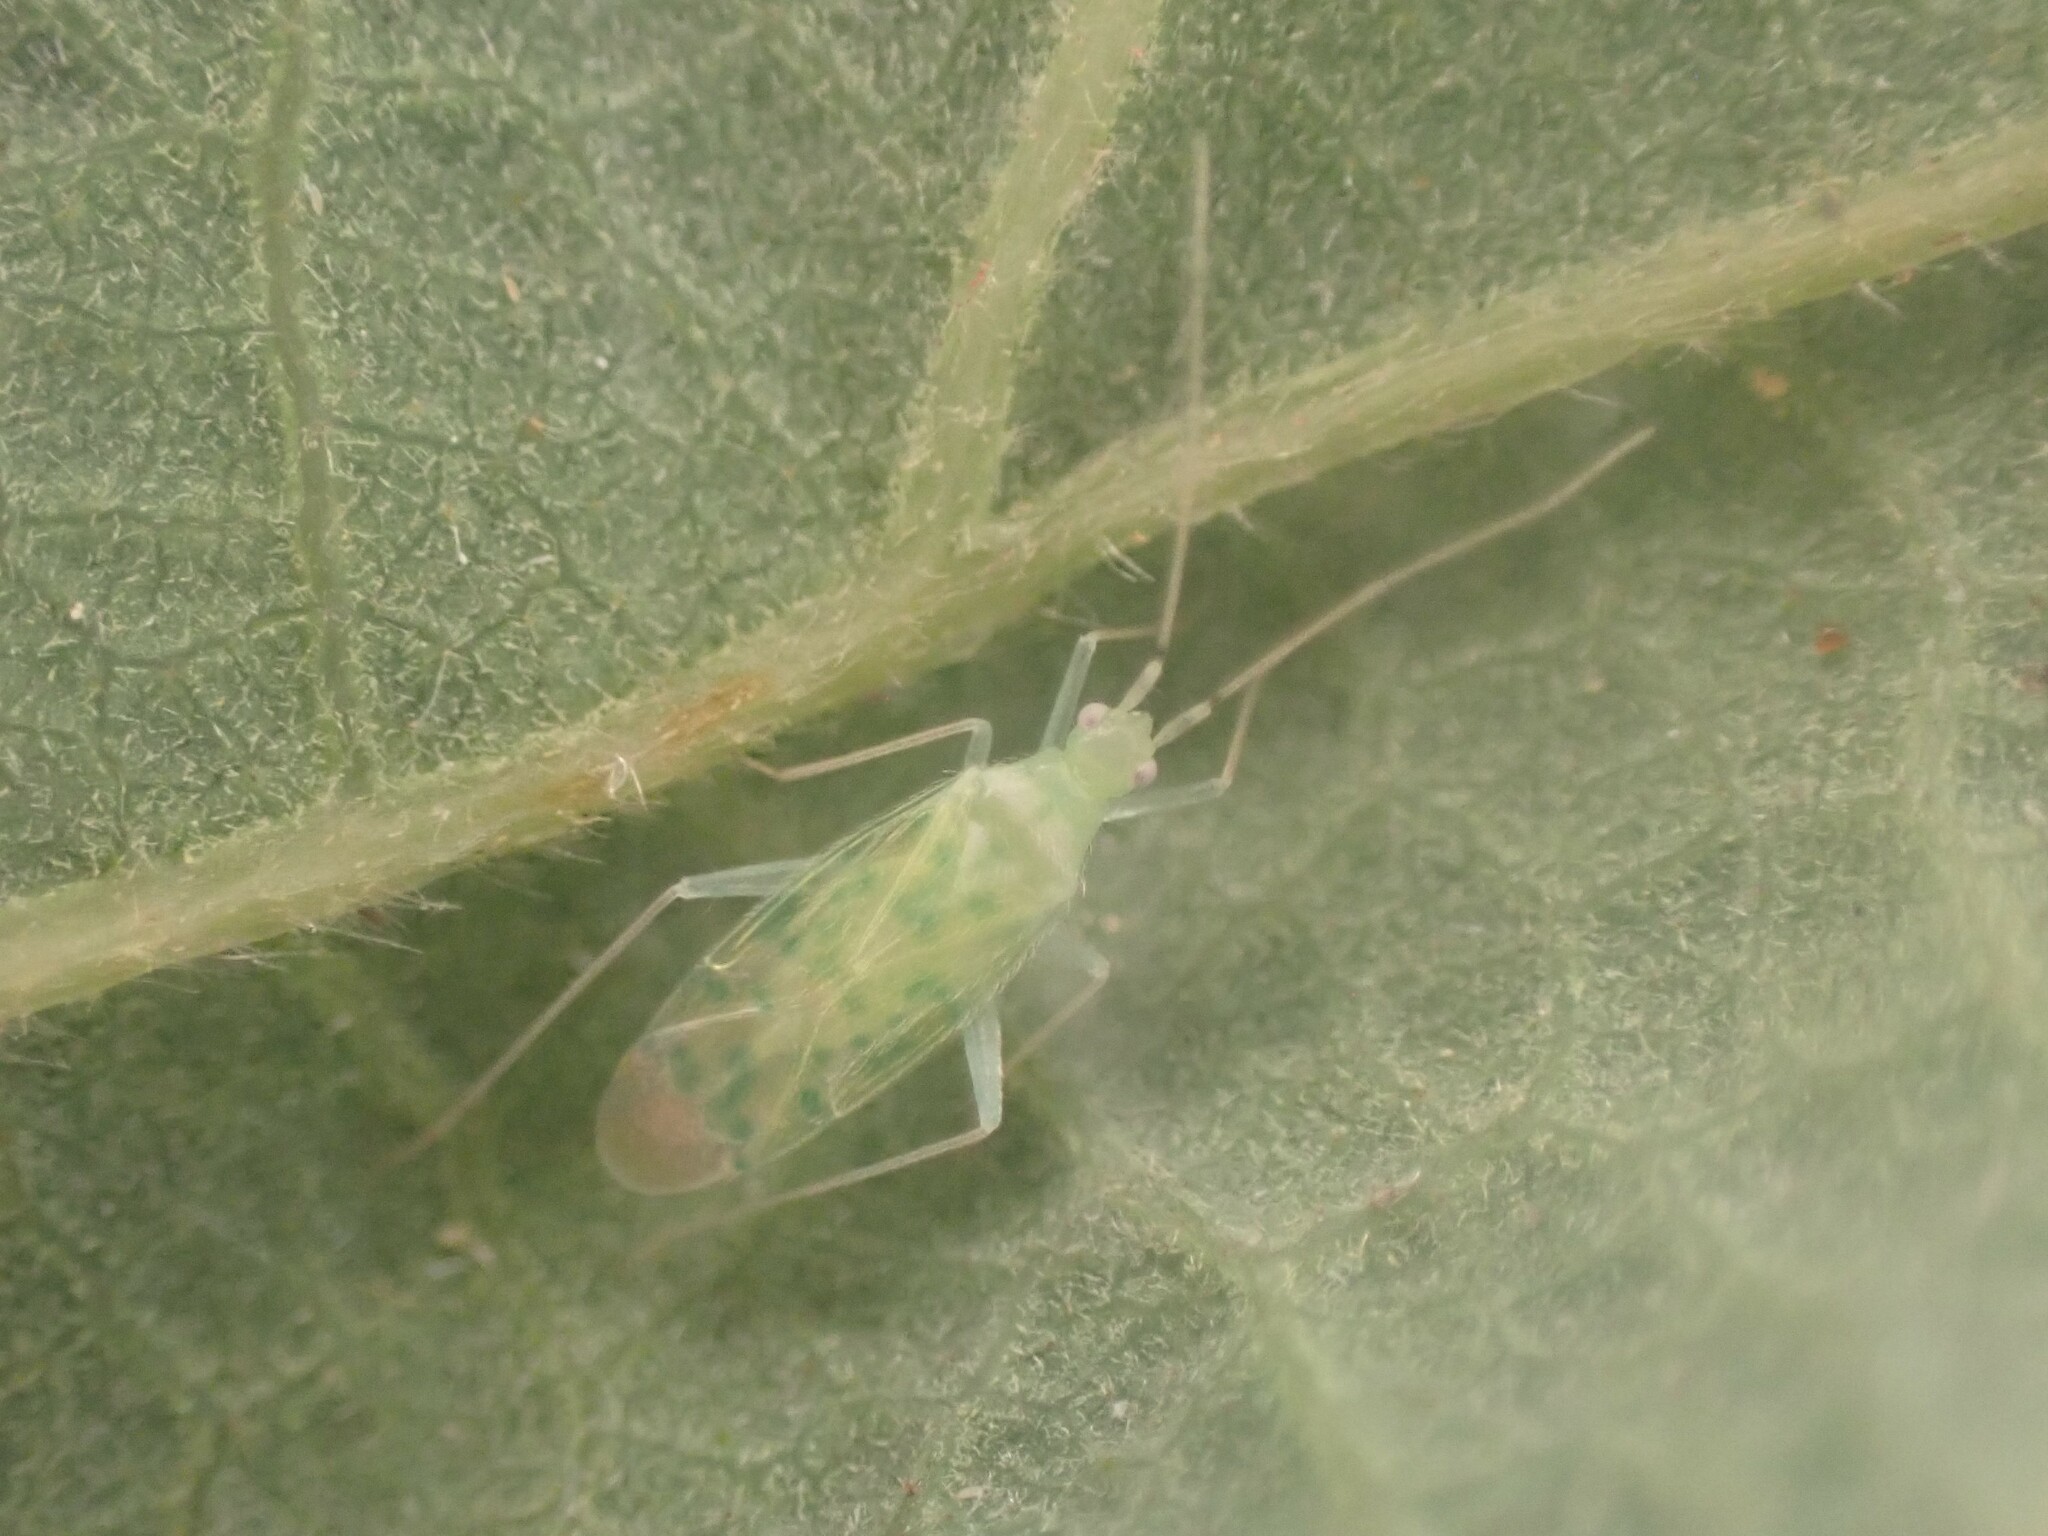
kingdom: Animalia
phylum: Arthropoda
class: Insecta
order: Hemiptera
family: Miridae
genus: Malacocoris
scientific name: Malacocoris chlorizans
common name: Plant bug
